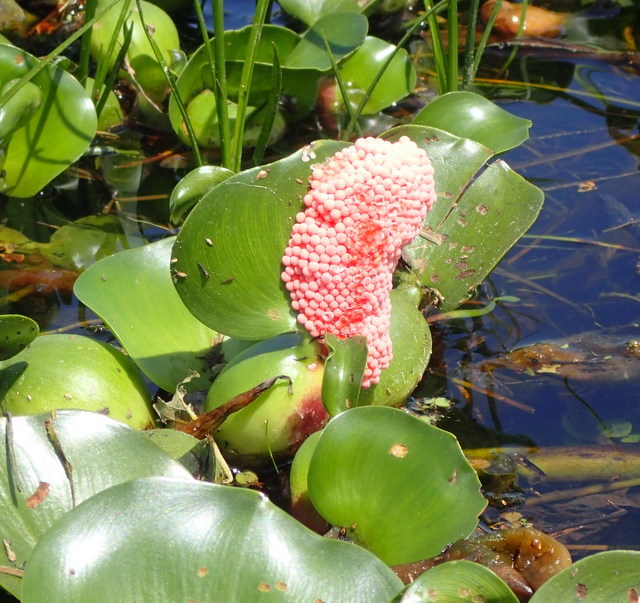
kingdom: Animalia
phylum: Mollusca
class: Gastropoda
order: Architaenioglossa
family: Ampullariidae
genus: Pomacea
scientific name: Pomacea maculata
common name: Giant applesnail
